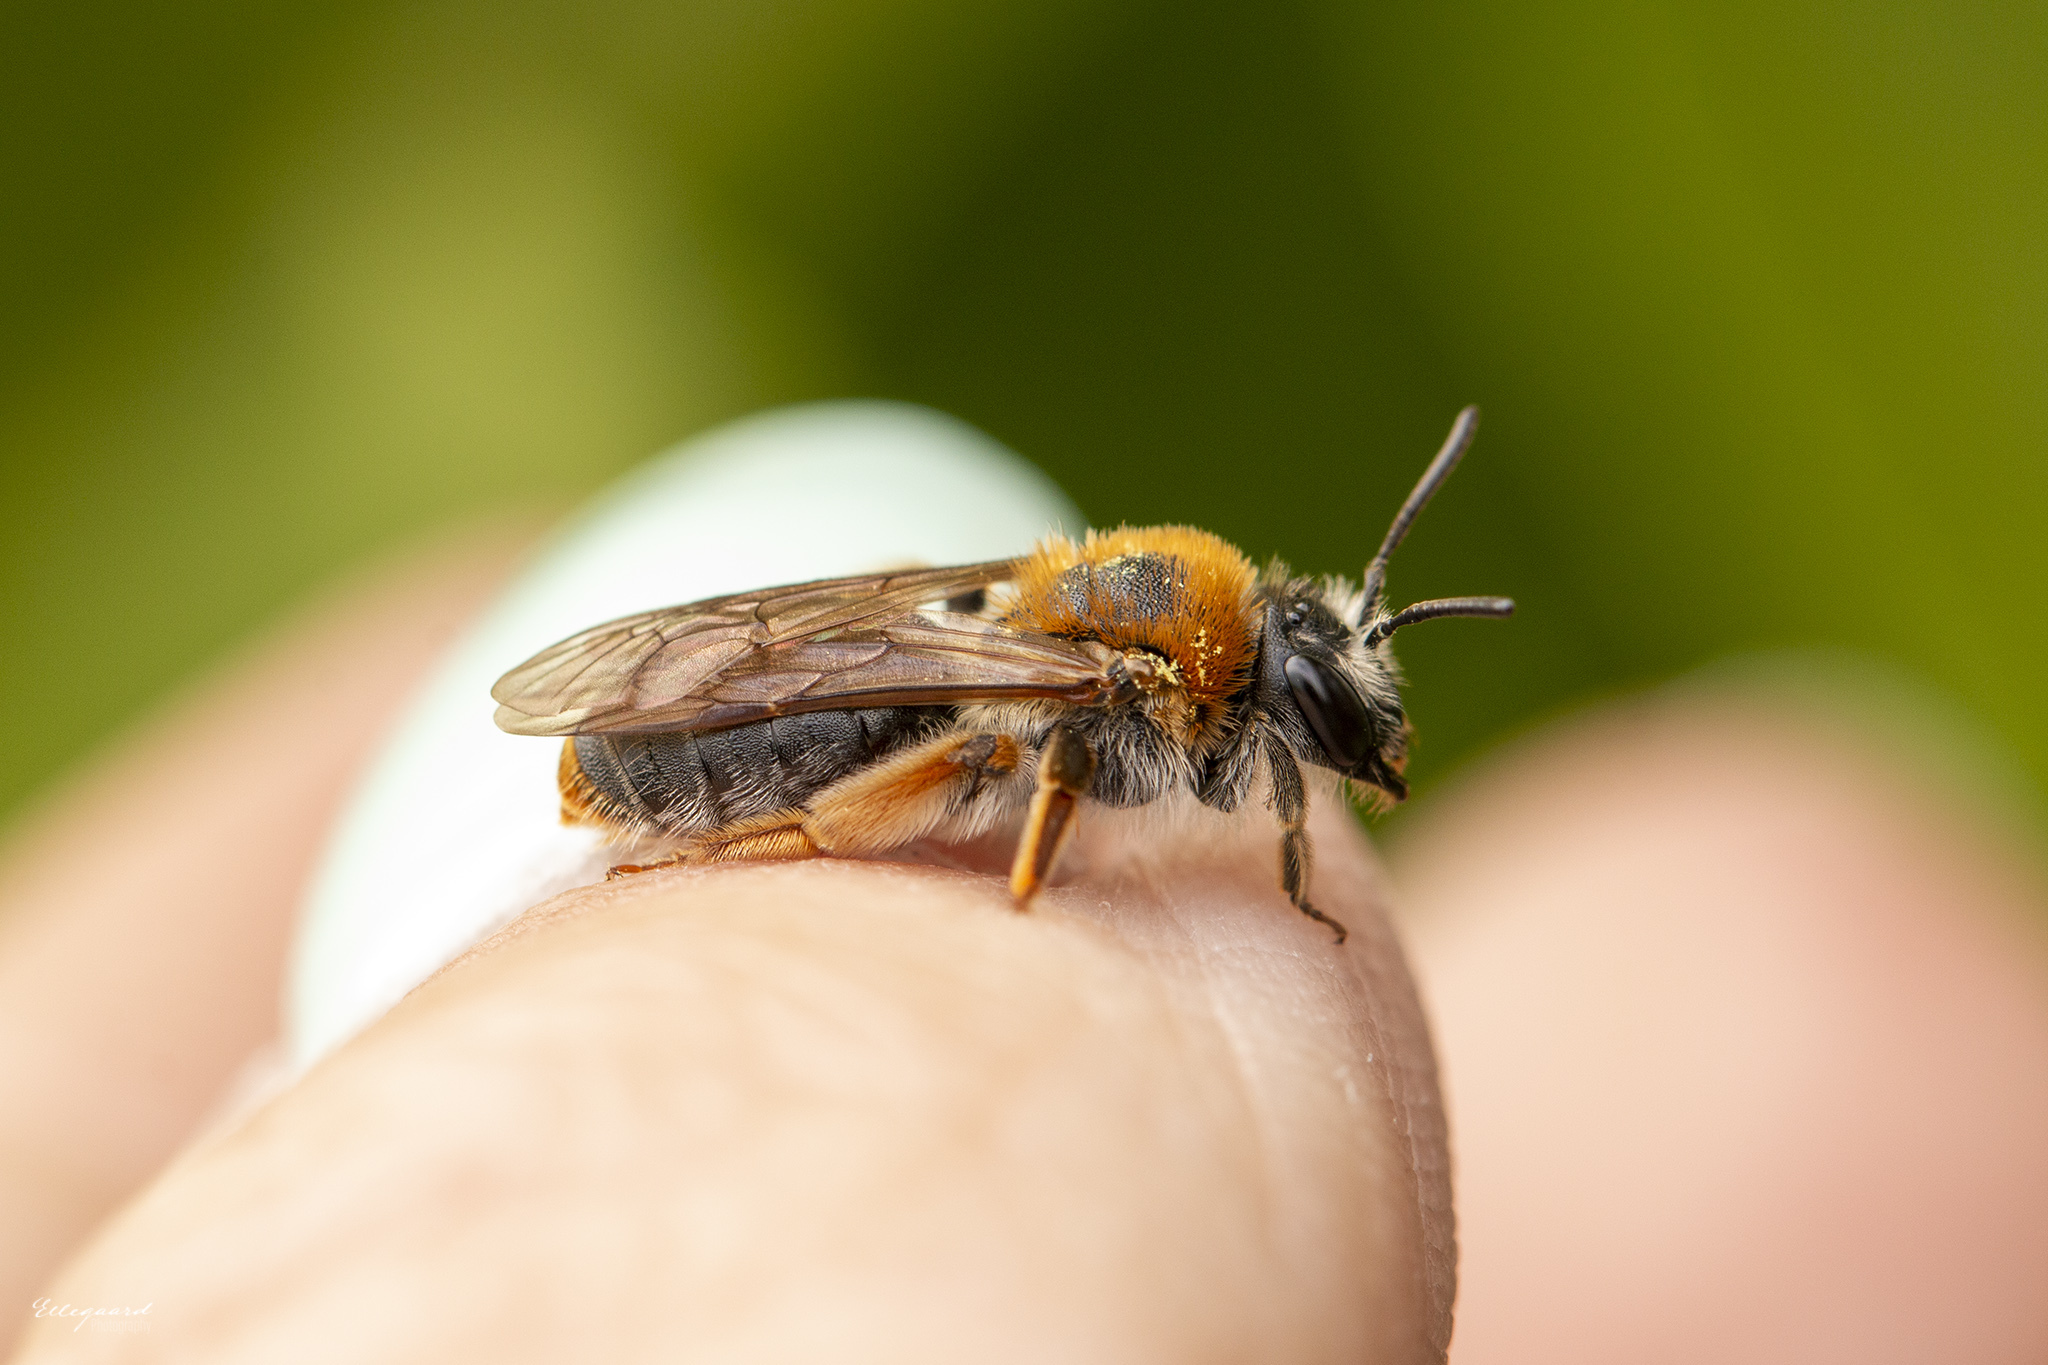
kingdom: Animalia
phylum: Arthropoda
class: Insecta
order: Hymenoptera
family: Andrenidae
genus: Andrena
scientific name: Andrena haemorrhoa
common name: Early mining bee
